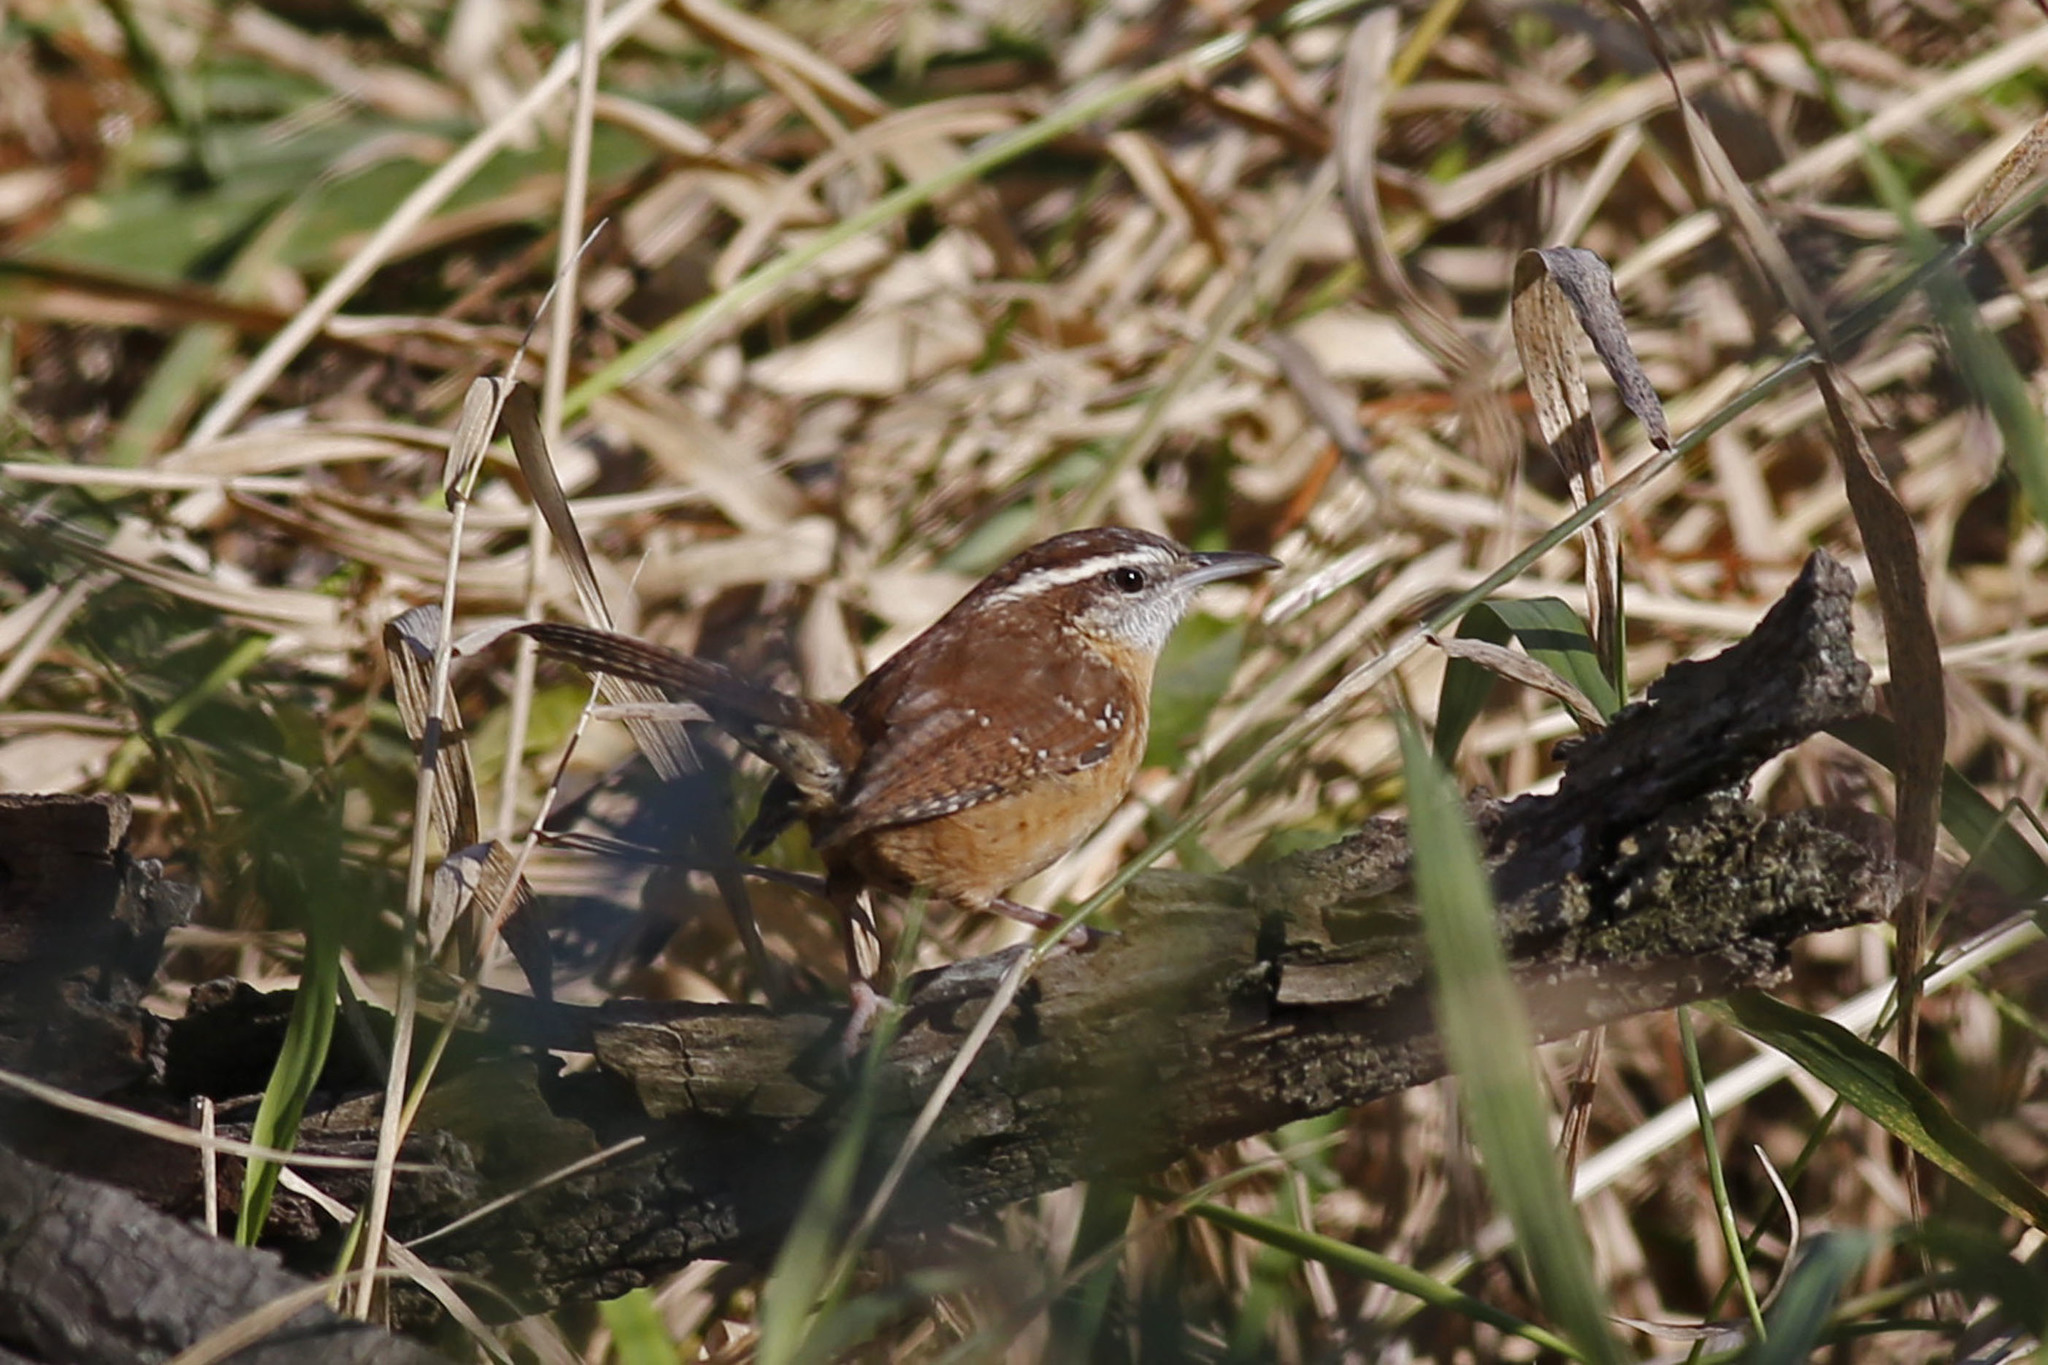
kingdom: Animalia
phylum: Chordata
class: Aves
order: Passeriformes
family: Troglodytidae
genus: Thryothorus
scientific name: Thryothorus ludovicianus
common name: Carolina wren
